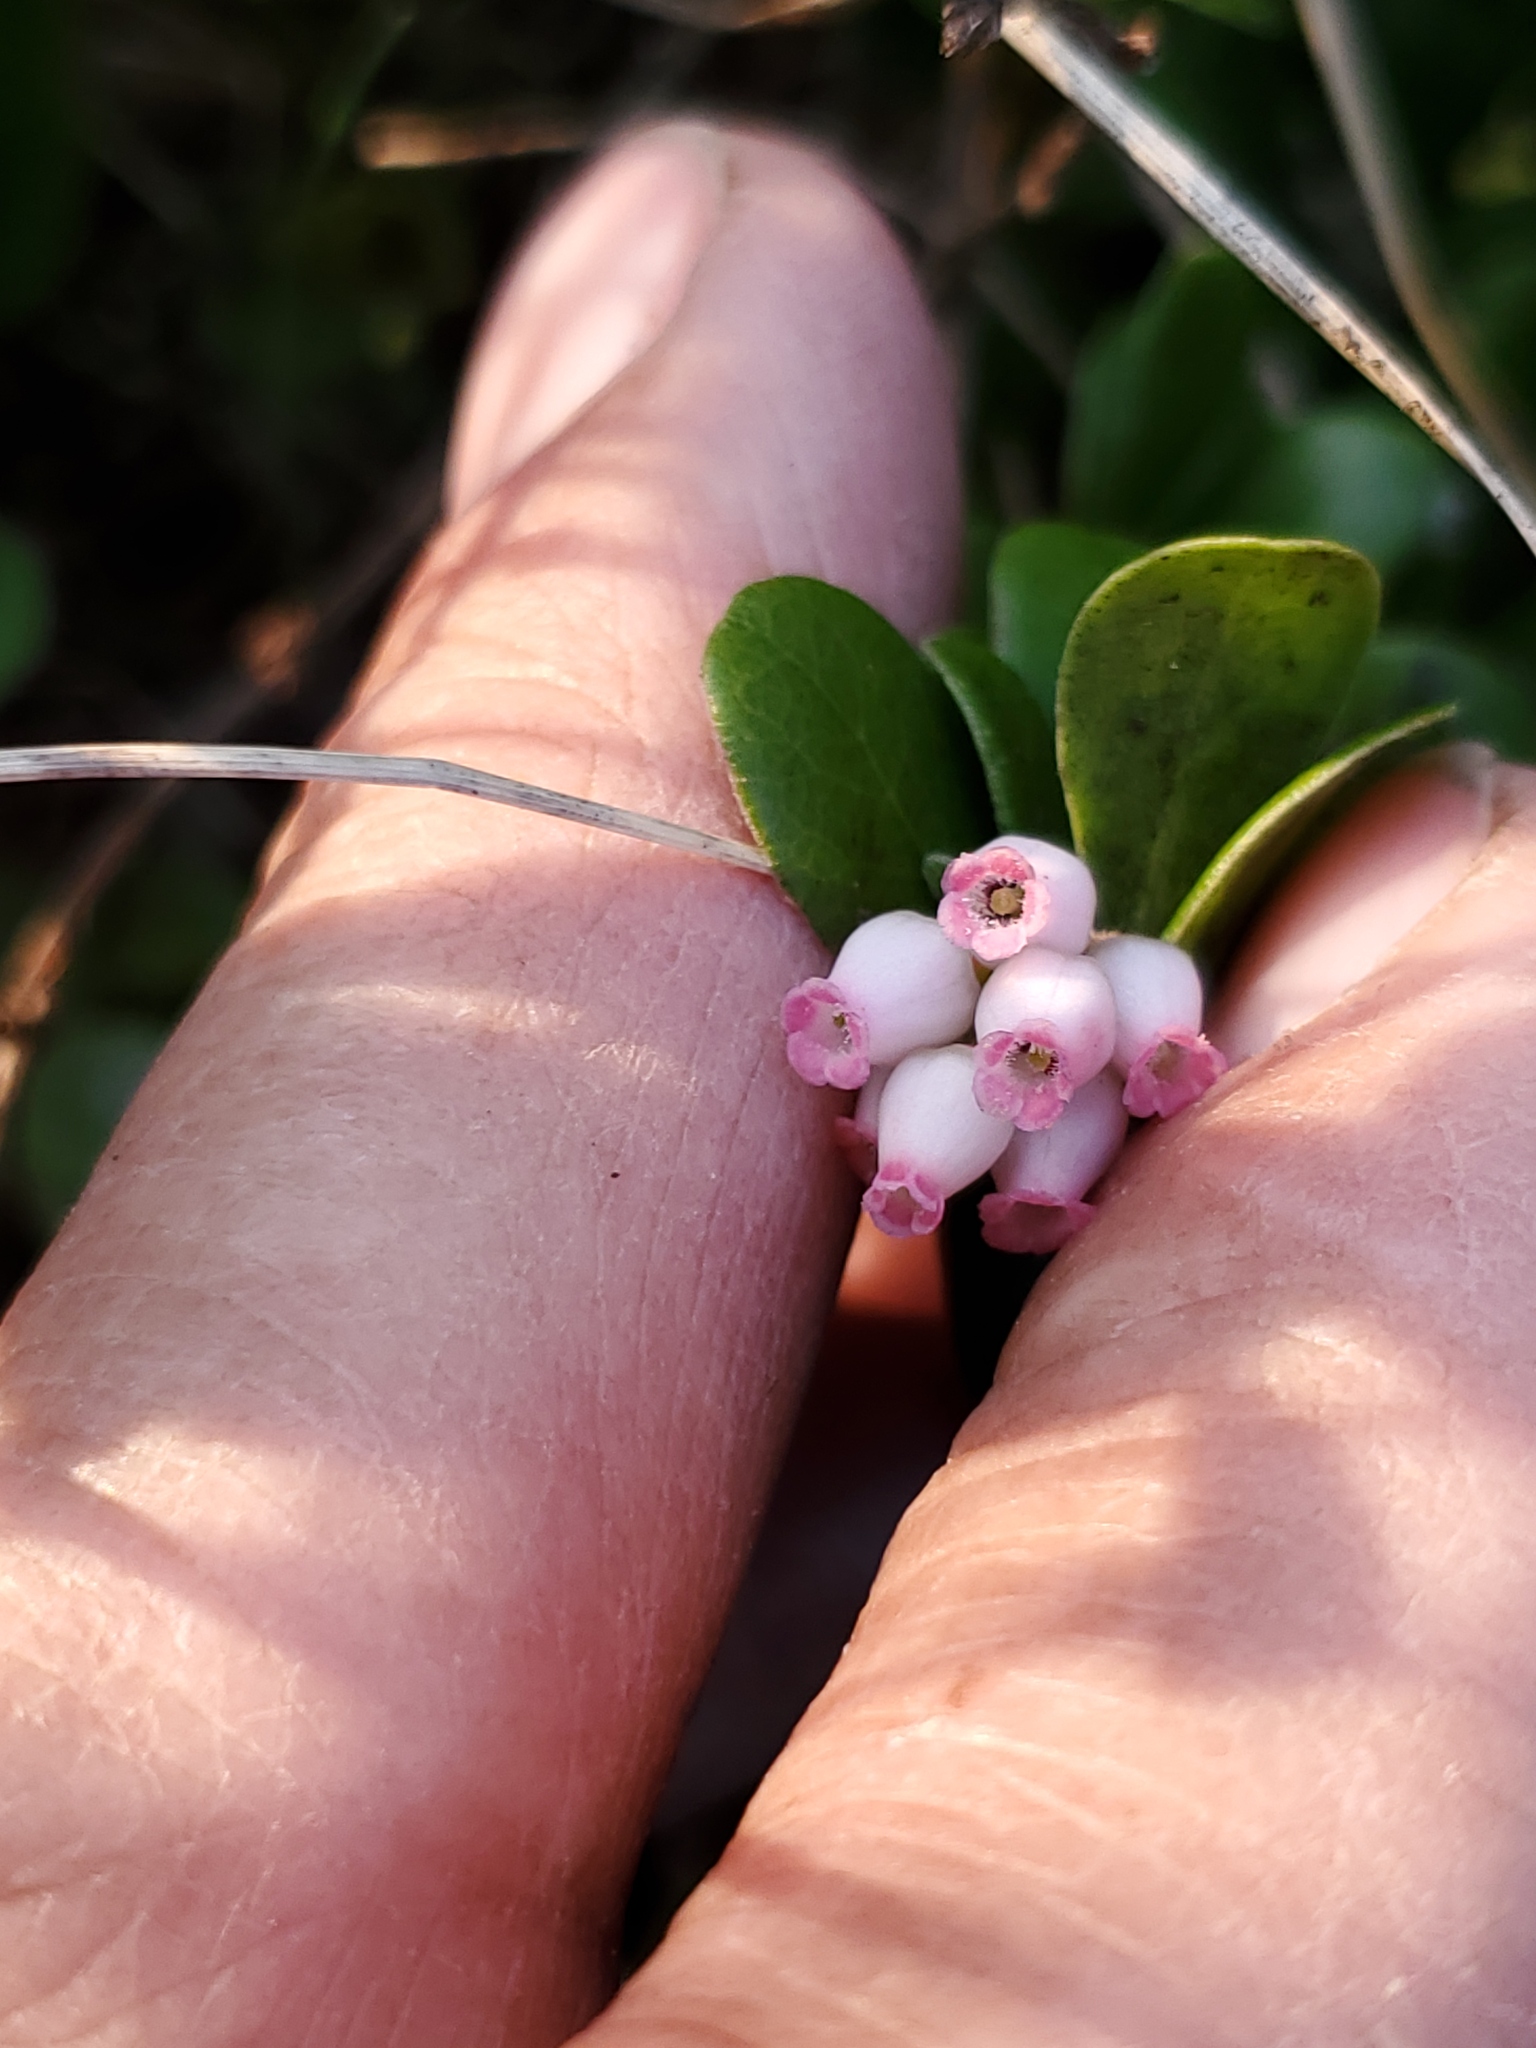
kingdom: Plantae
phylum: Tracheophyta
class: Magnoliopsida
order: Ericales
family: Ericaceae
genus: Arctostaphylos
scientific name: Arctostaphylos uva-ursi
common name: Bearberry
